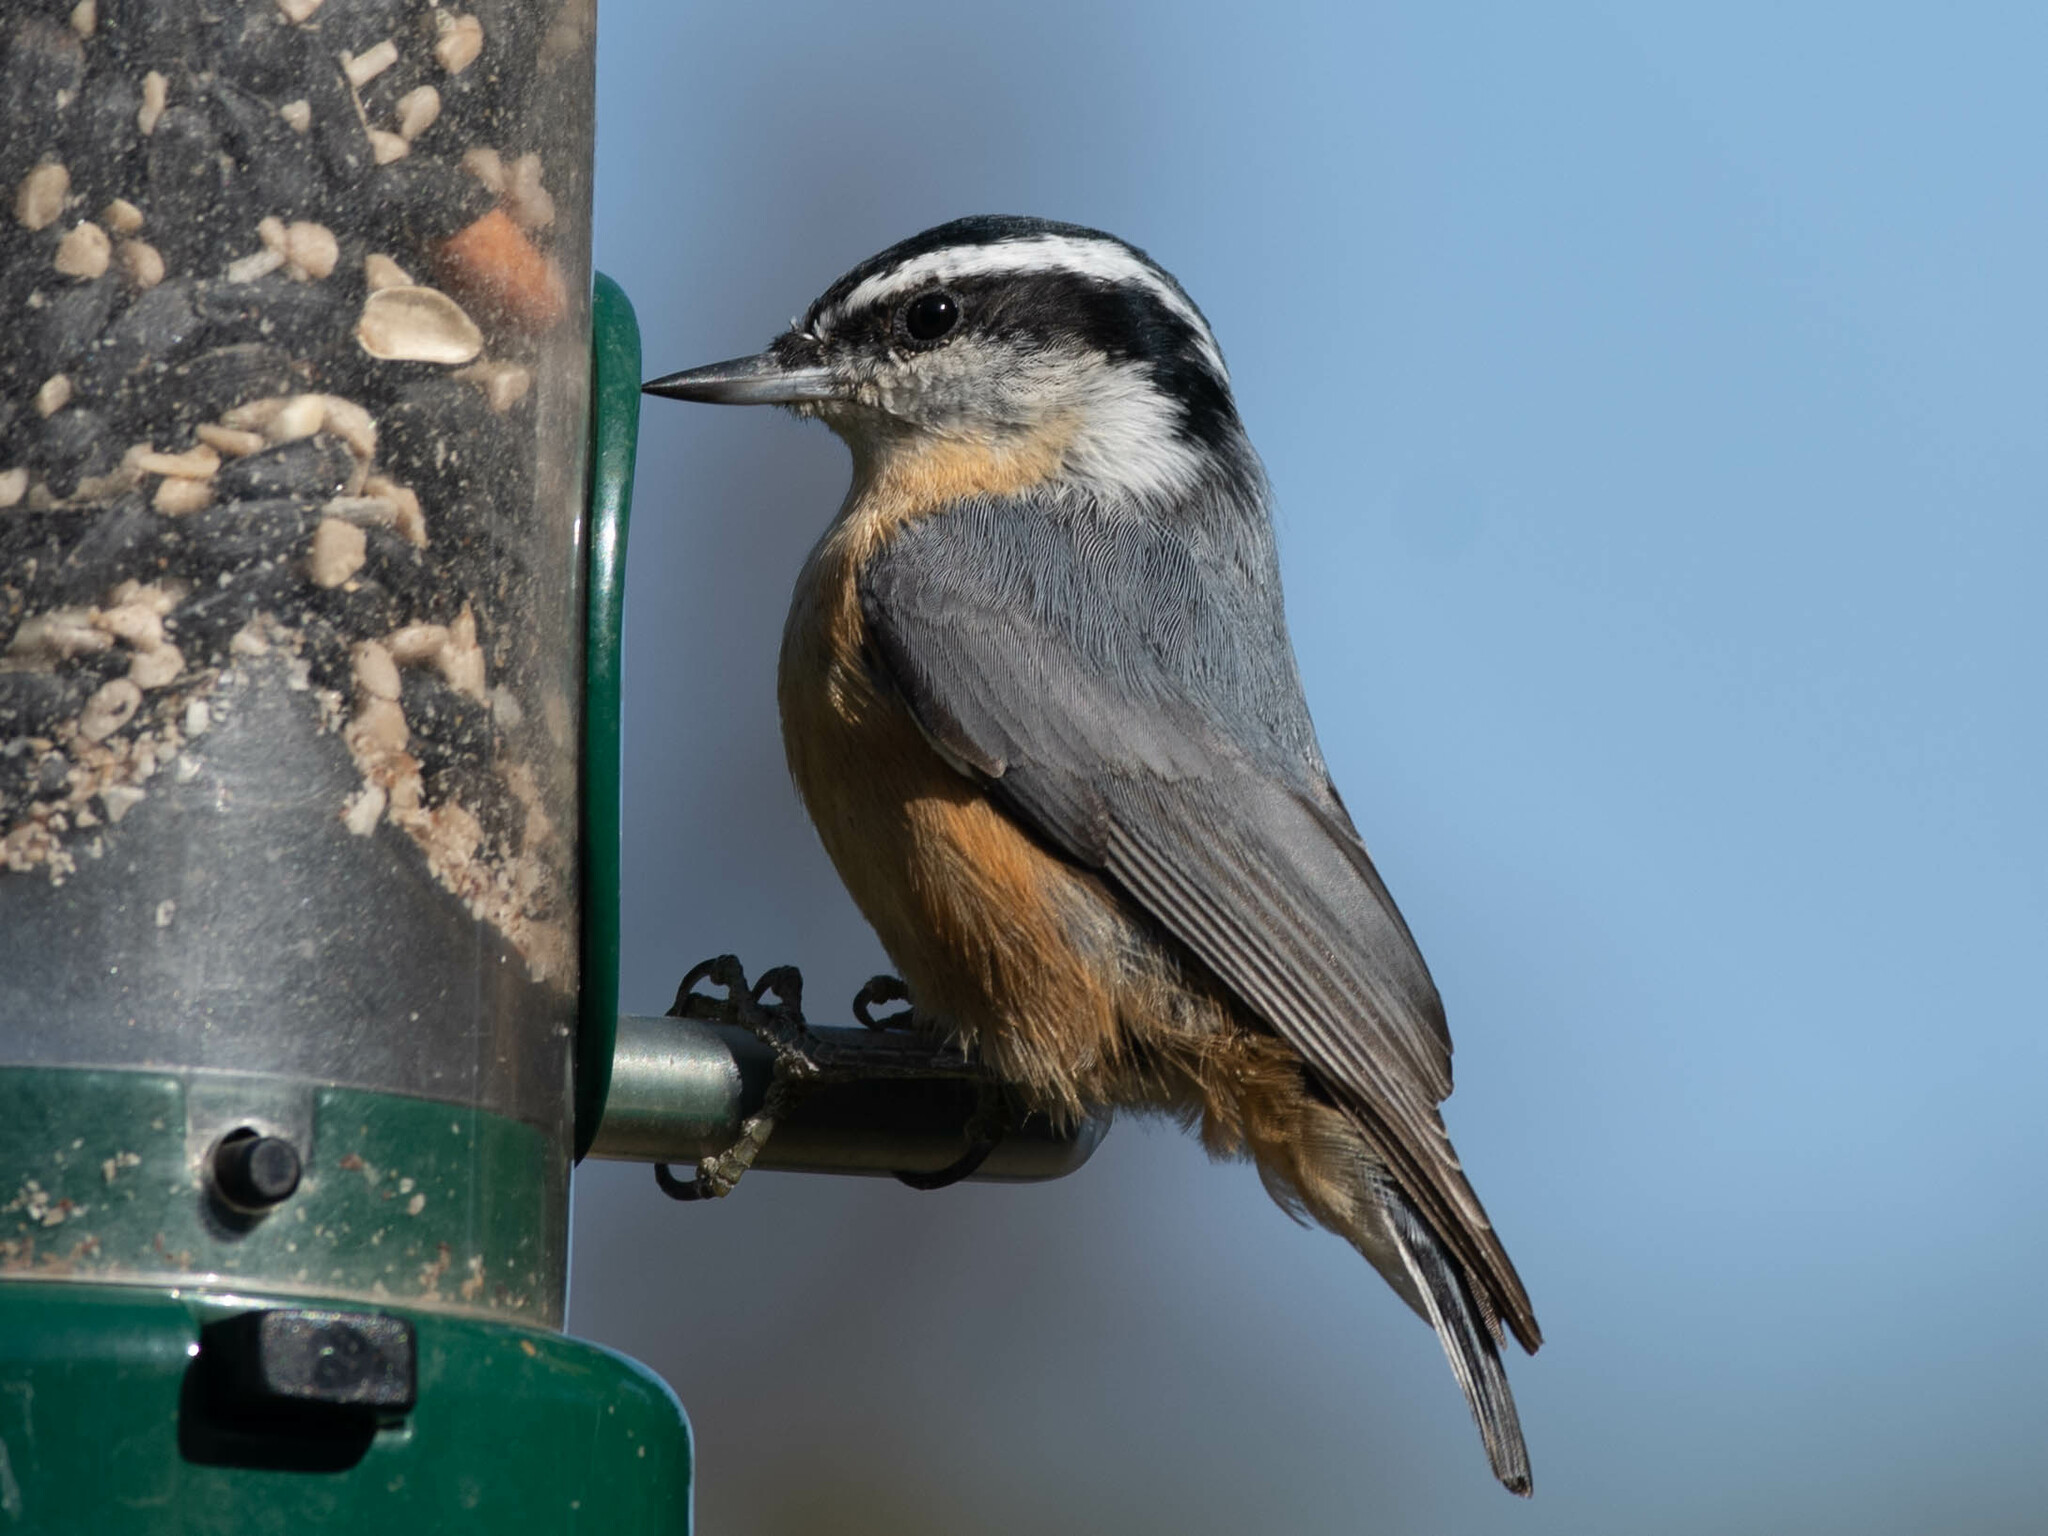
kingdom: Animalia
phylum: Chordata
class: Aves
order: Passeriformes
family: Sittidae
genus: Sitta
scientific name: Sitta canadensis
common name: Red-breasted nuthatch
